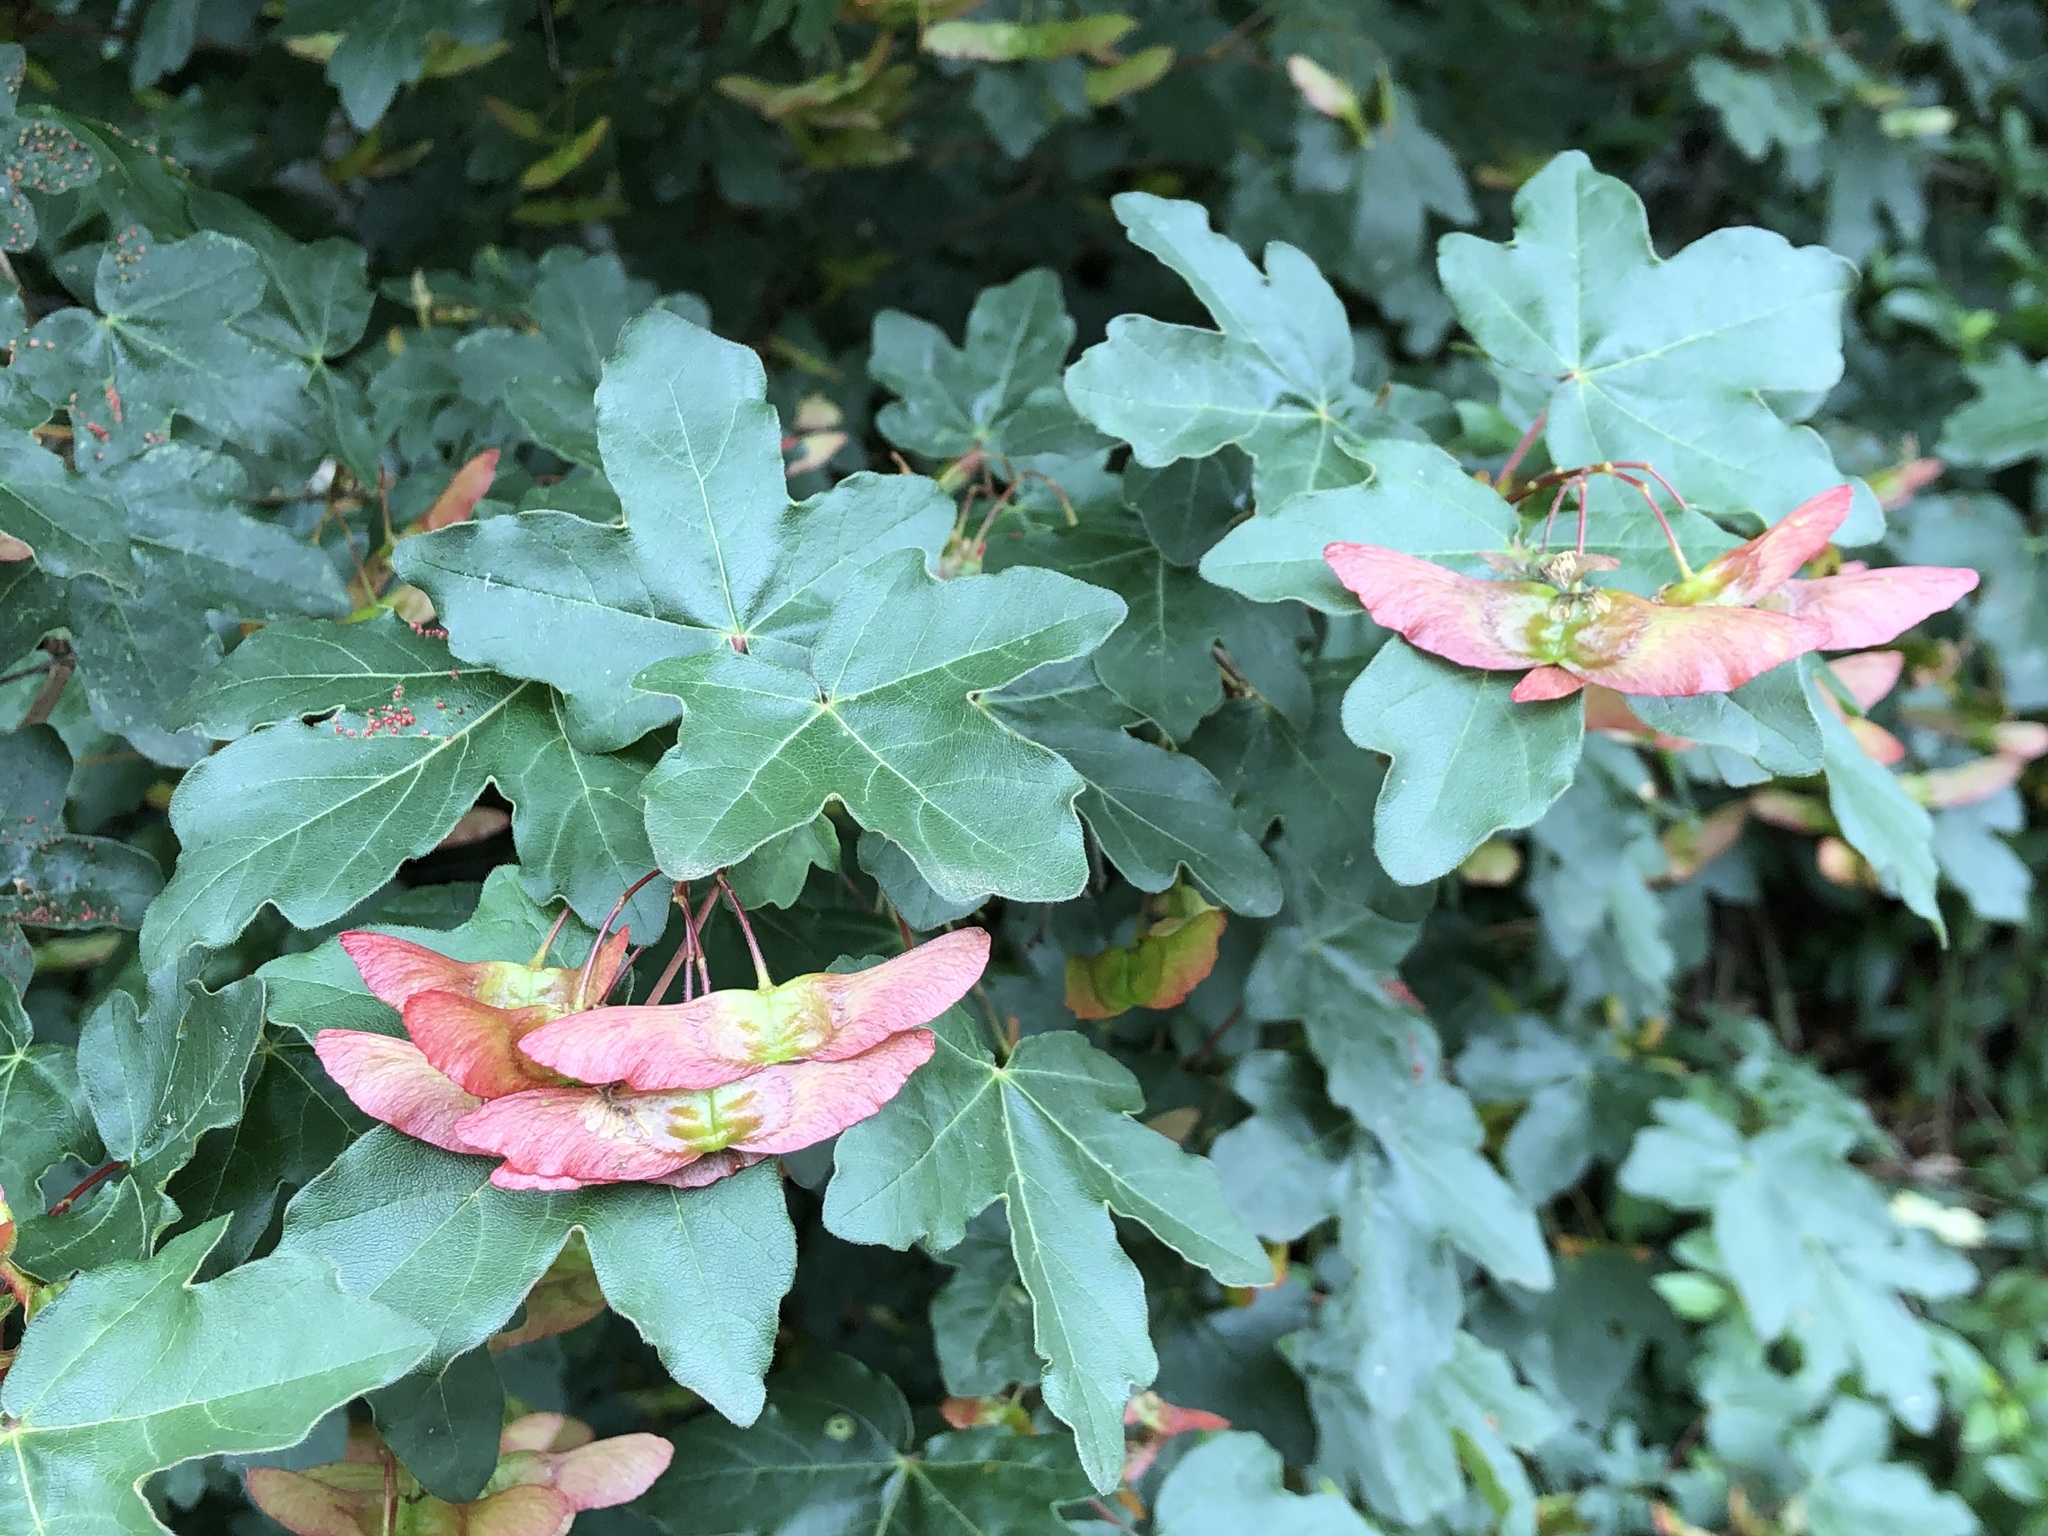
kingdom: Plantae
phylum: Tracheophyta
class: Magnoliopsida
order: Sapindales
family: Sapindaceae
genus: Acer
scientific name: Acer campestre
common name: Field maple
